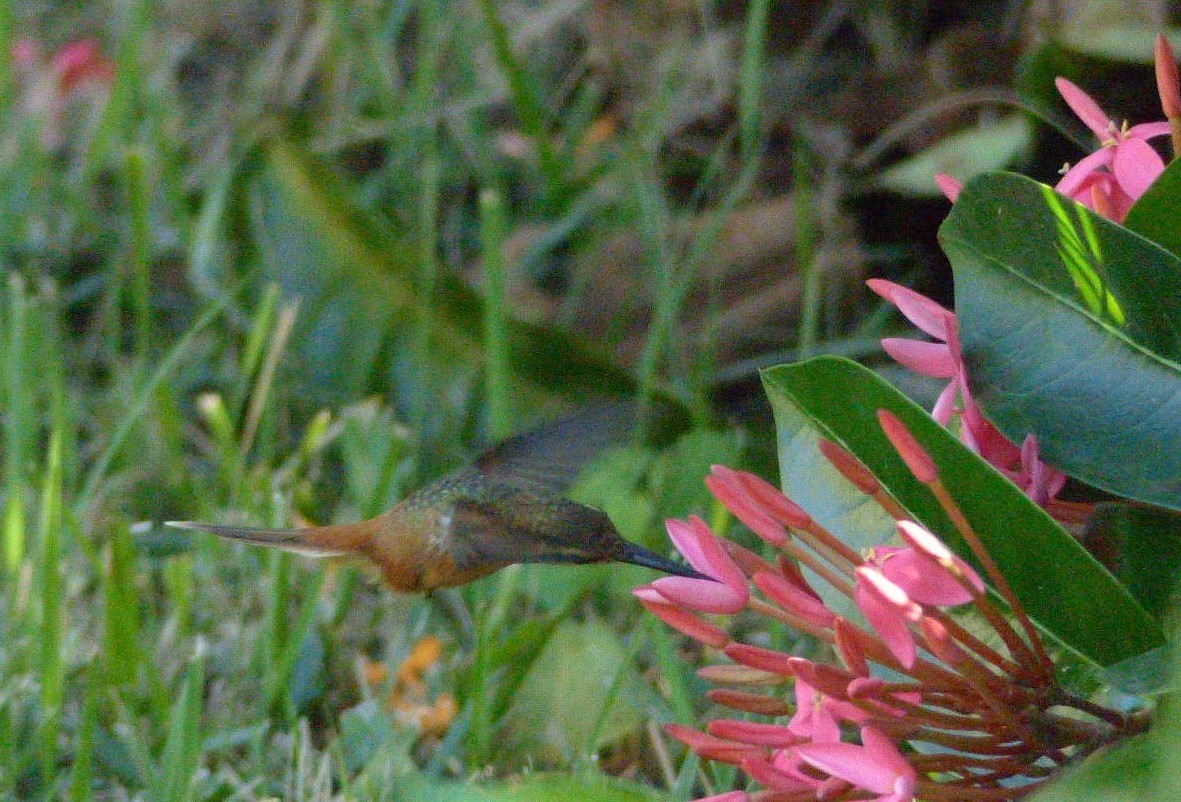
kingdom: Animalia
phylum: Chordata
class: Aves
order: Apodiformes
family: Trochilidae
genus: Phaethornis
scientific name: Phaethornis ruber
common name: Reddish hermit
